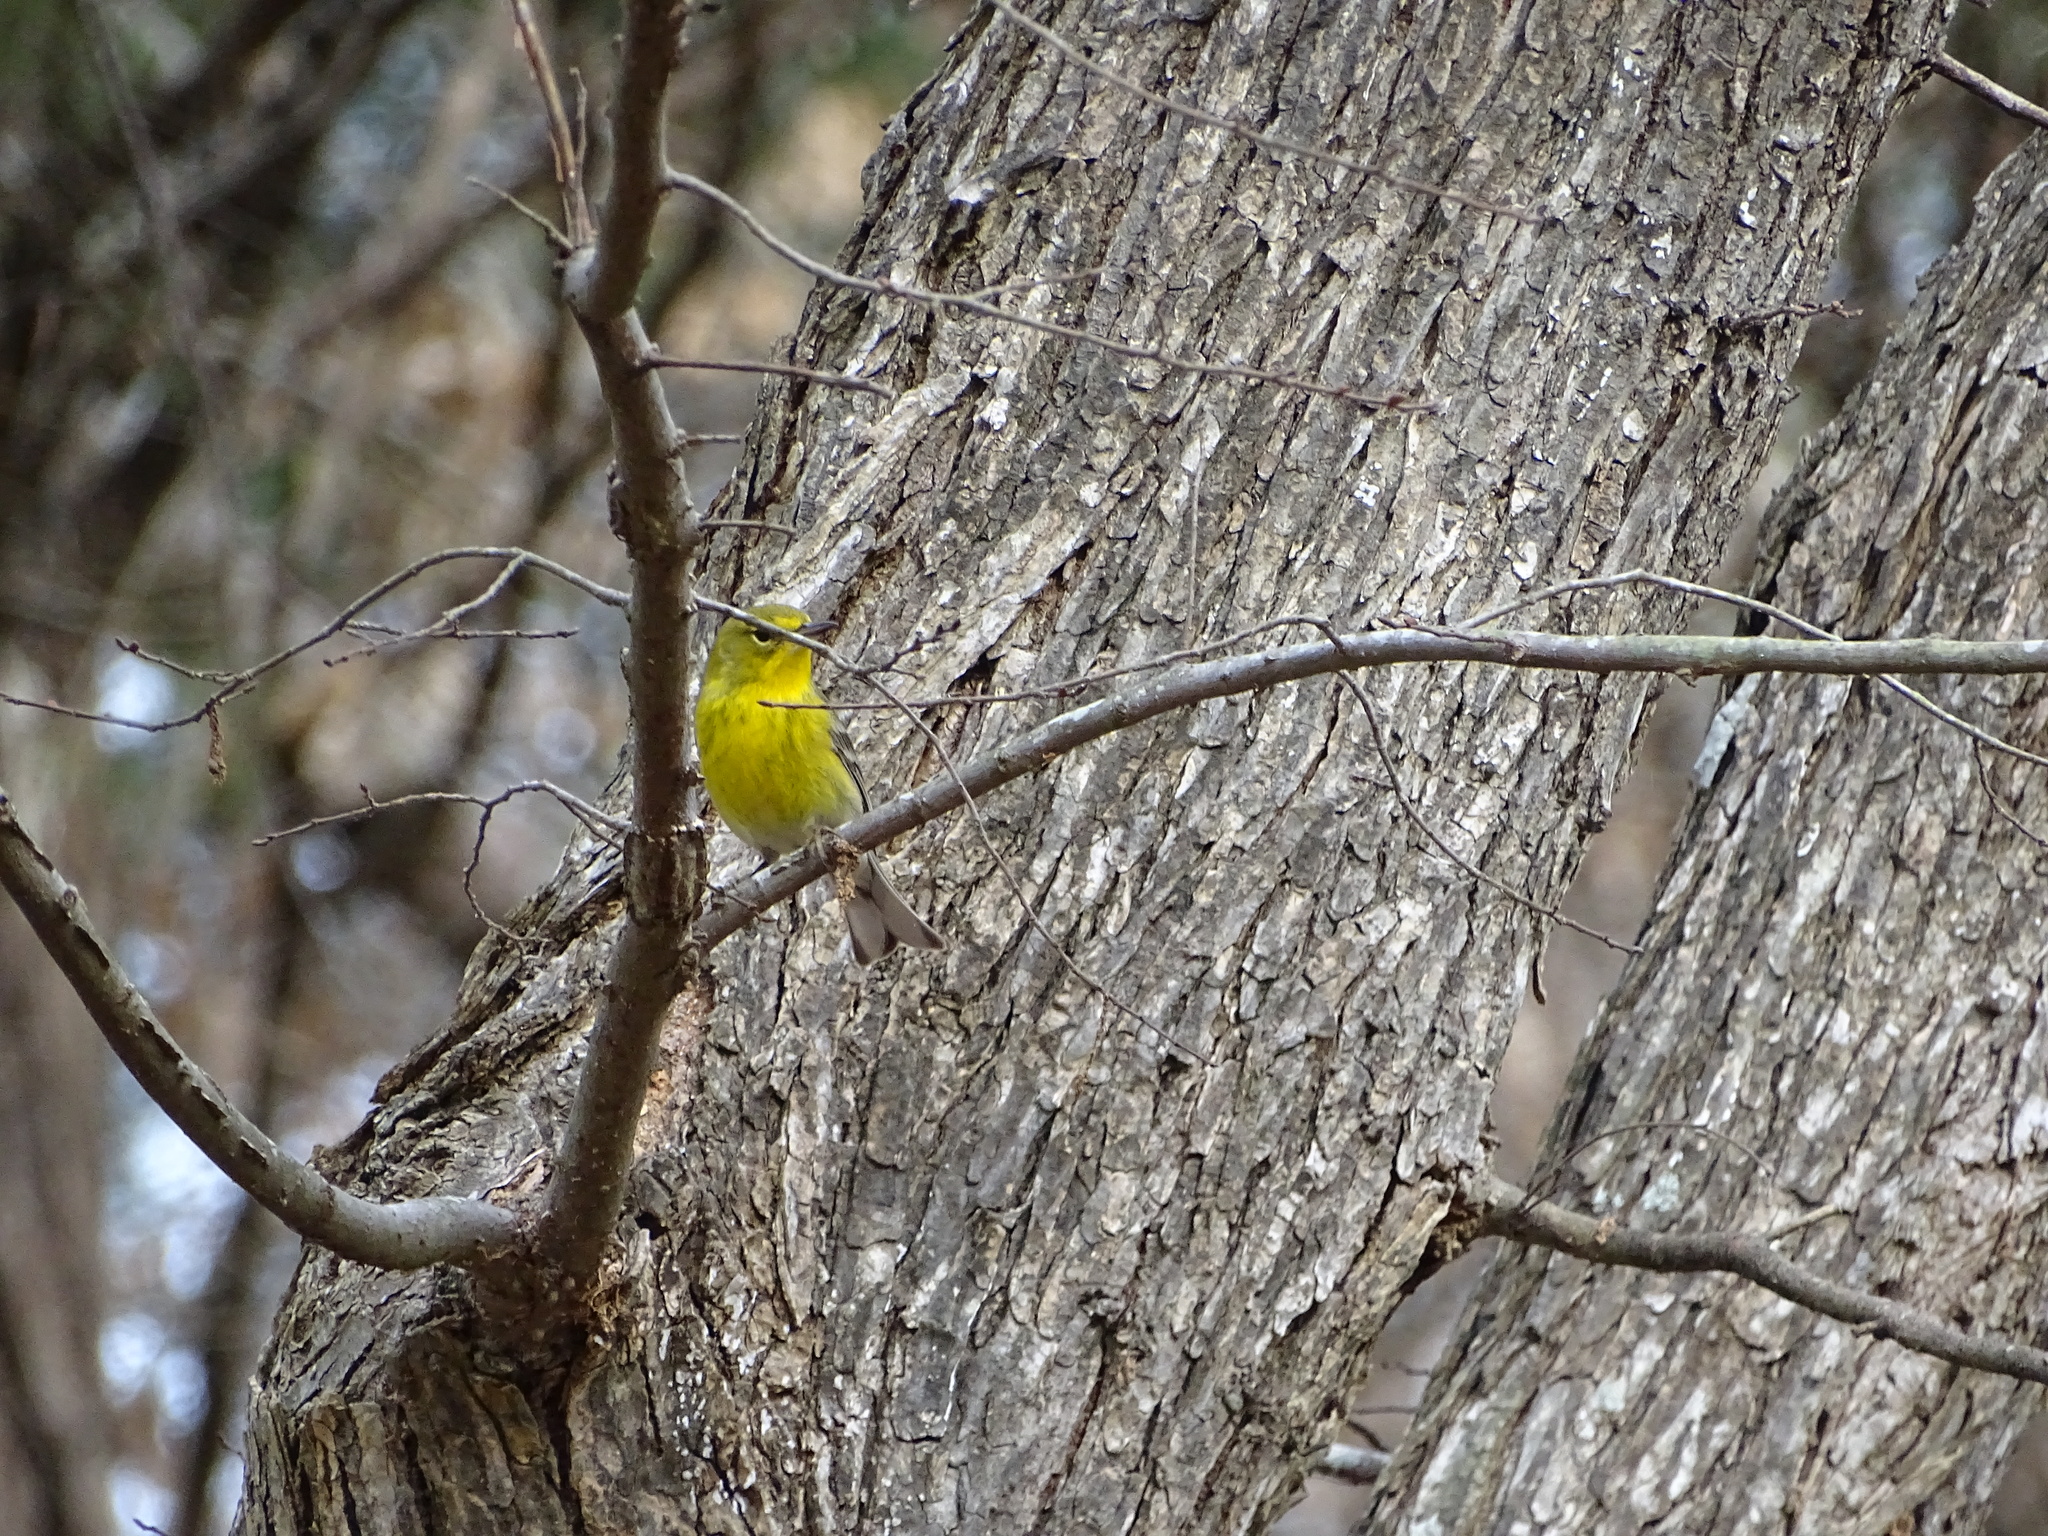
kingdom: Animalia
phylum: Chordata
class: Aves
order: Passeriformes
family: Parulidae
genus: Setophaga
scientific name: Setophaga pinus
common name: Pine warbler
